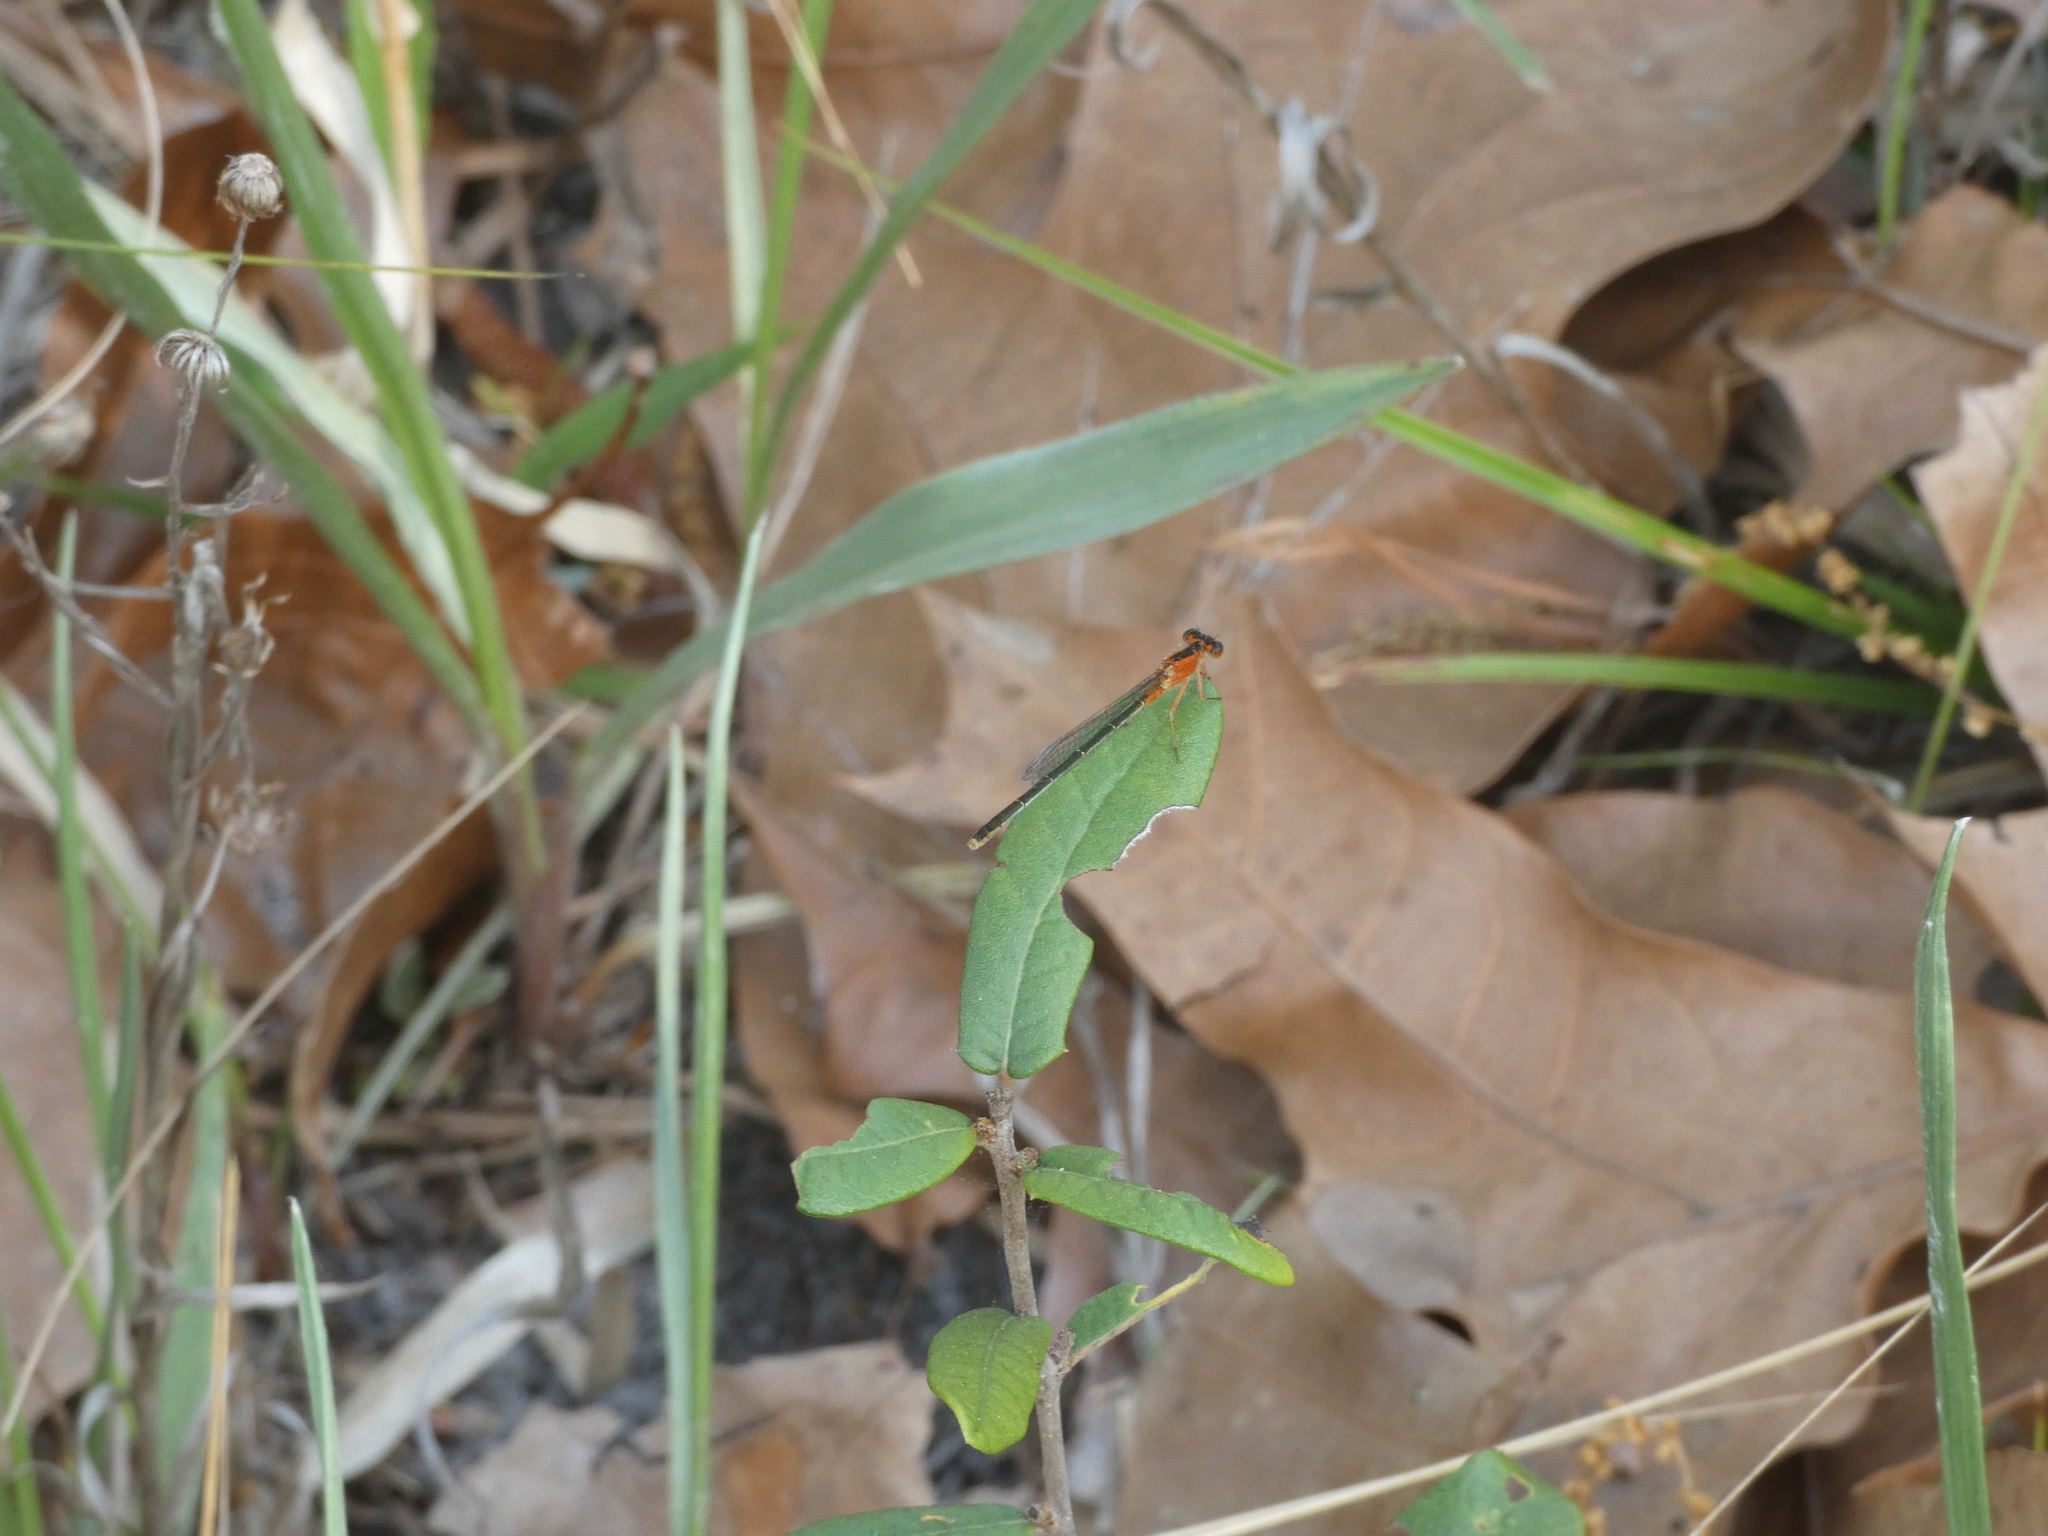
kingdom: Animalia
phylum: Arthropoda
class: Insecta
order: Odonata
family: Coenagrionidae
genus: Ischnura
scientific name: Ischnura ramburii
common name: Rambur's forktail
